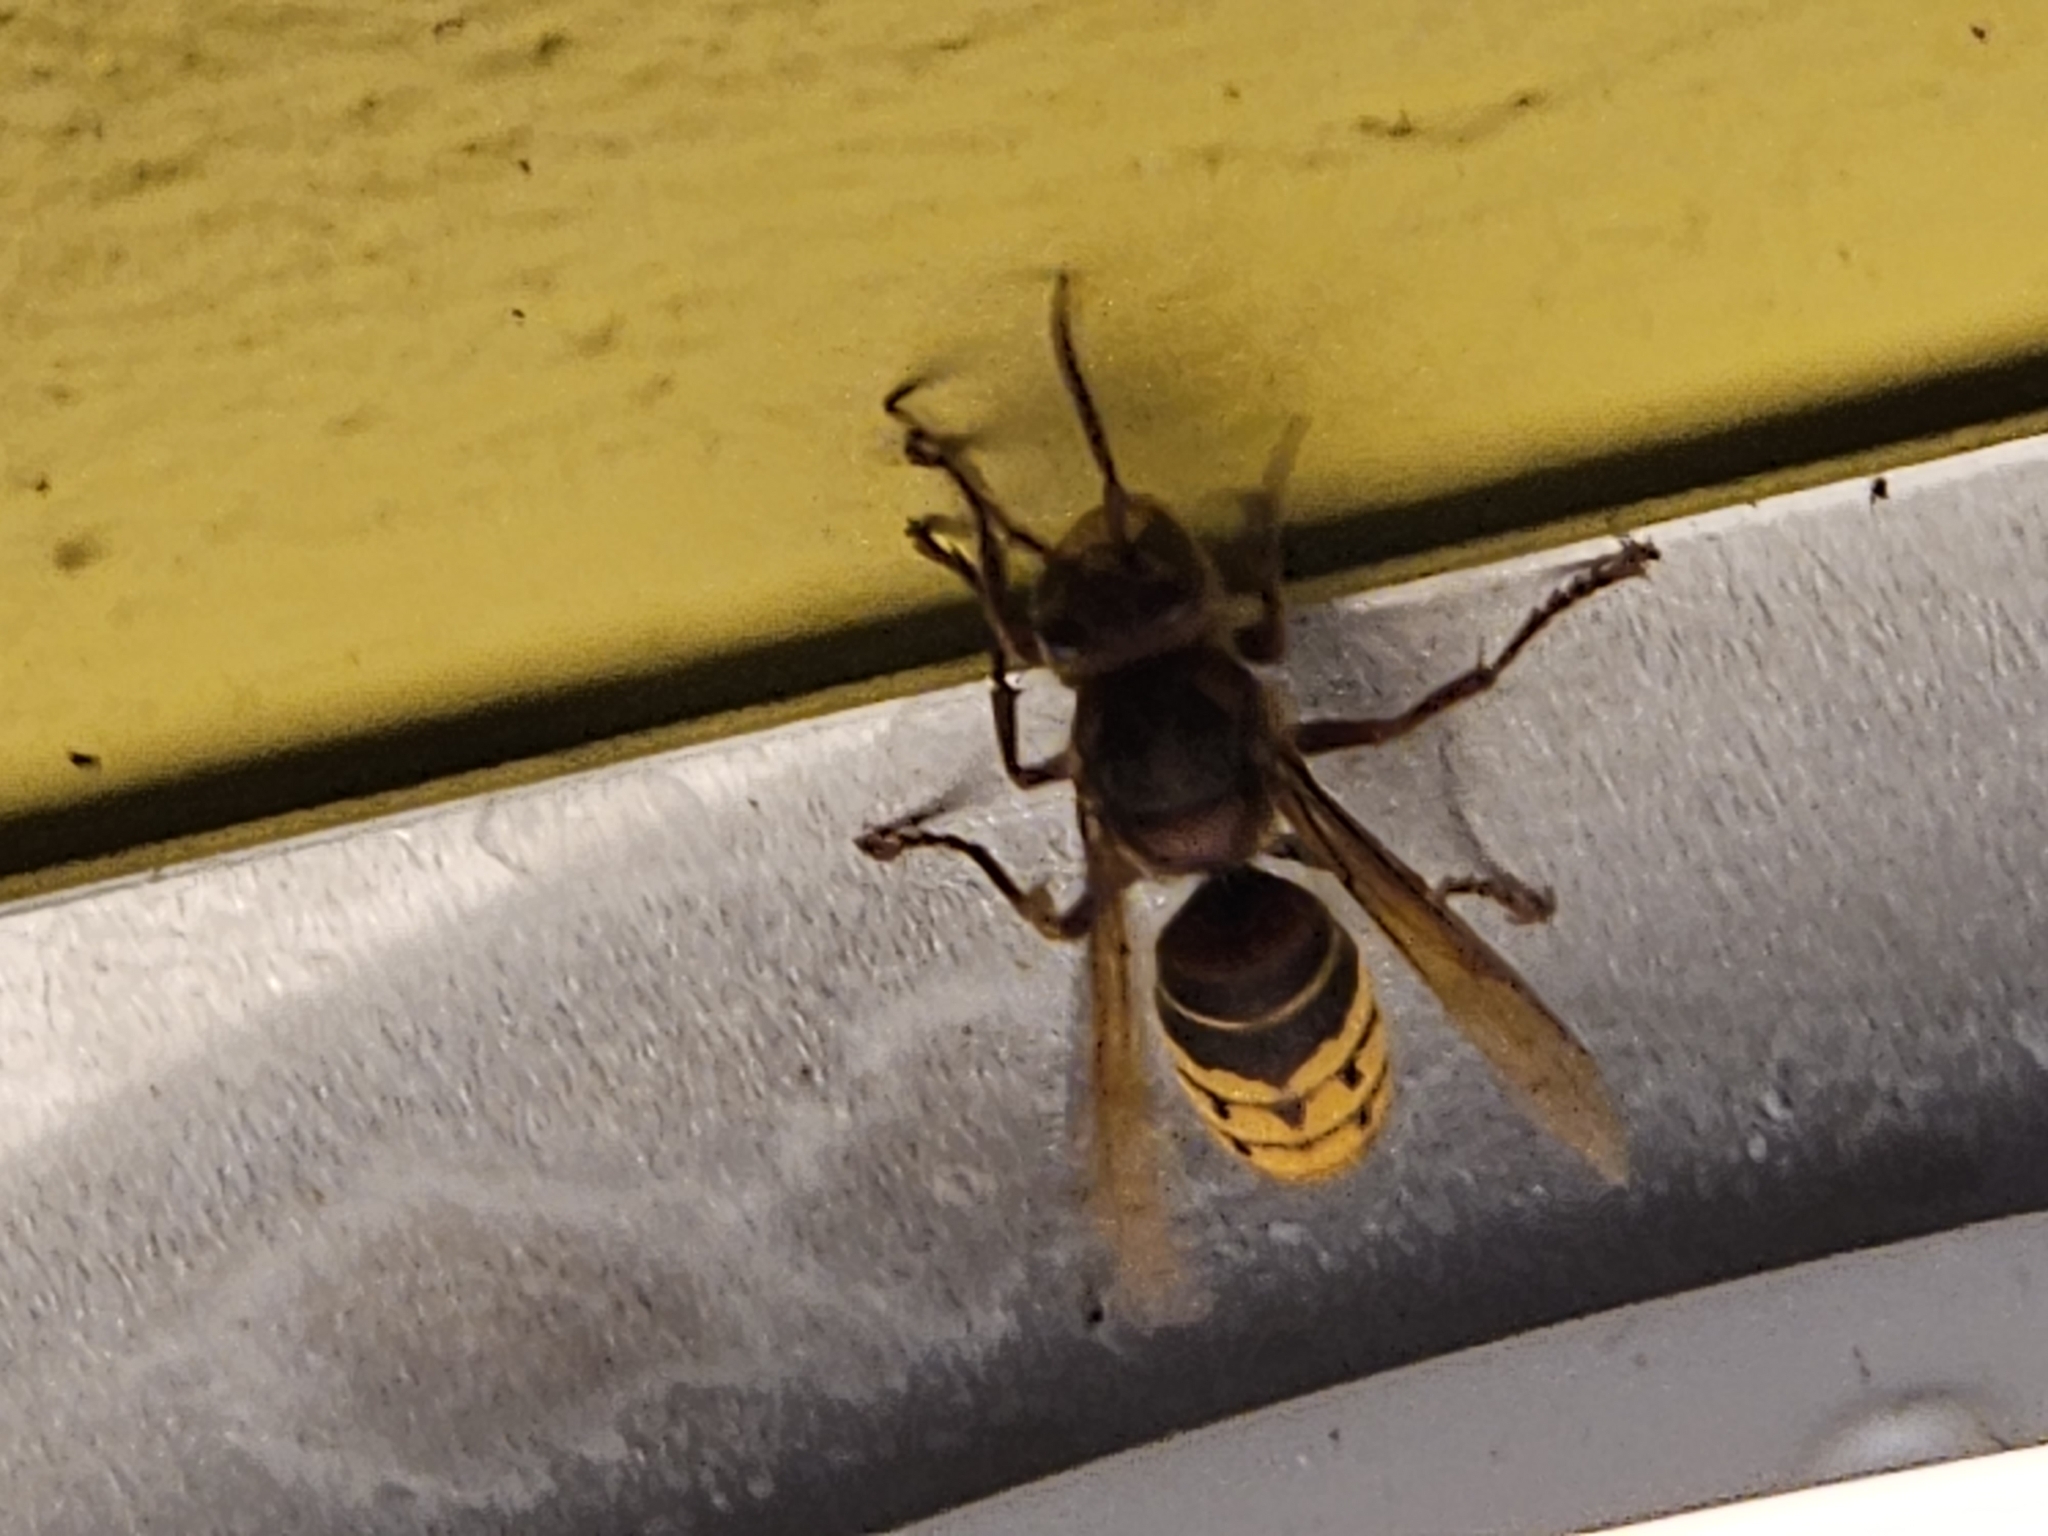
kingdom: Animalia
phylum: Arthropoda
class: Insecta
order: Hymenoptera
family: Vespidae
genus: Vespa
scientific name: Vespa crabro
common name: Hornet
